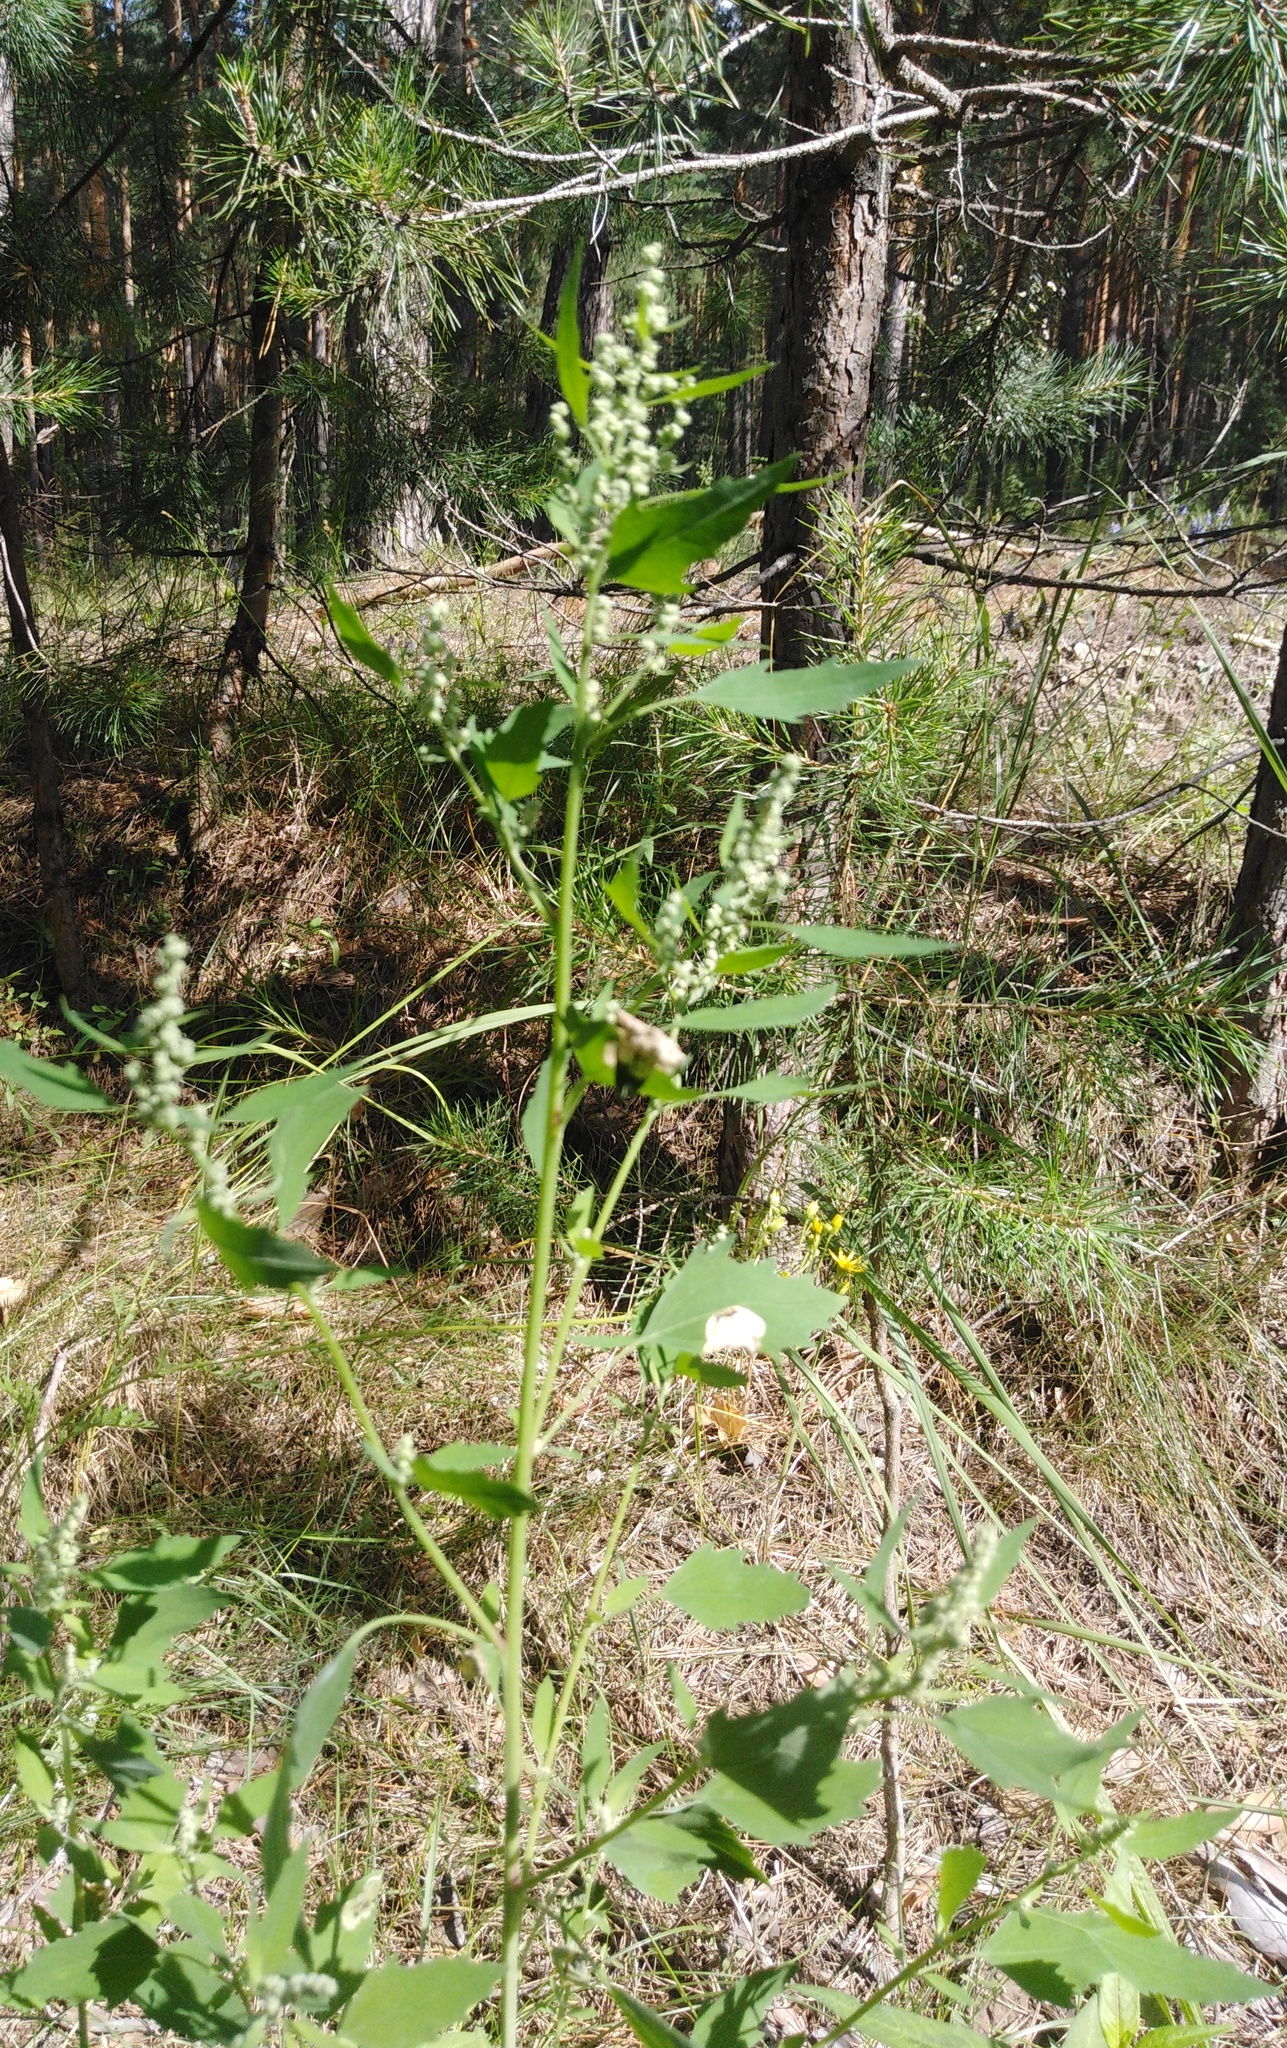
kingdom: Plantae
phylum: Tracheophyta
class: Magnoliopsida
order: Caryophyllales
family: Amaranthaceae
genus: Chenopodium
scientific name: Chenopodium album
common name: Fat-hen
